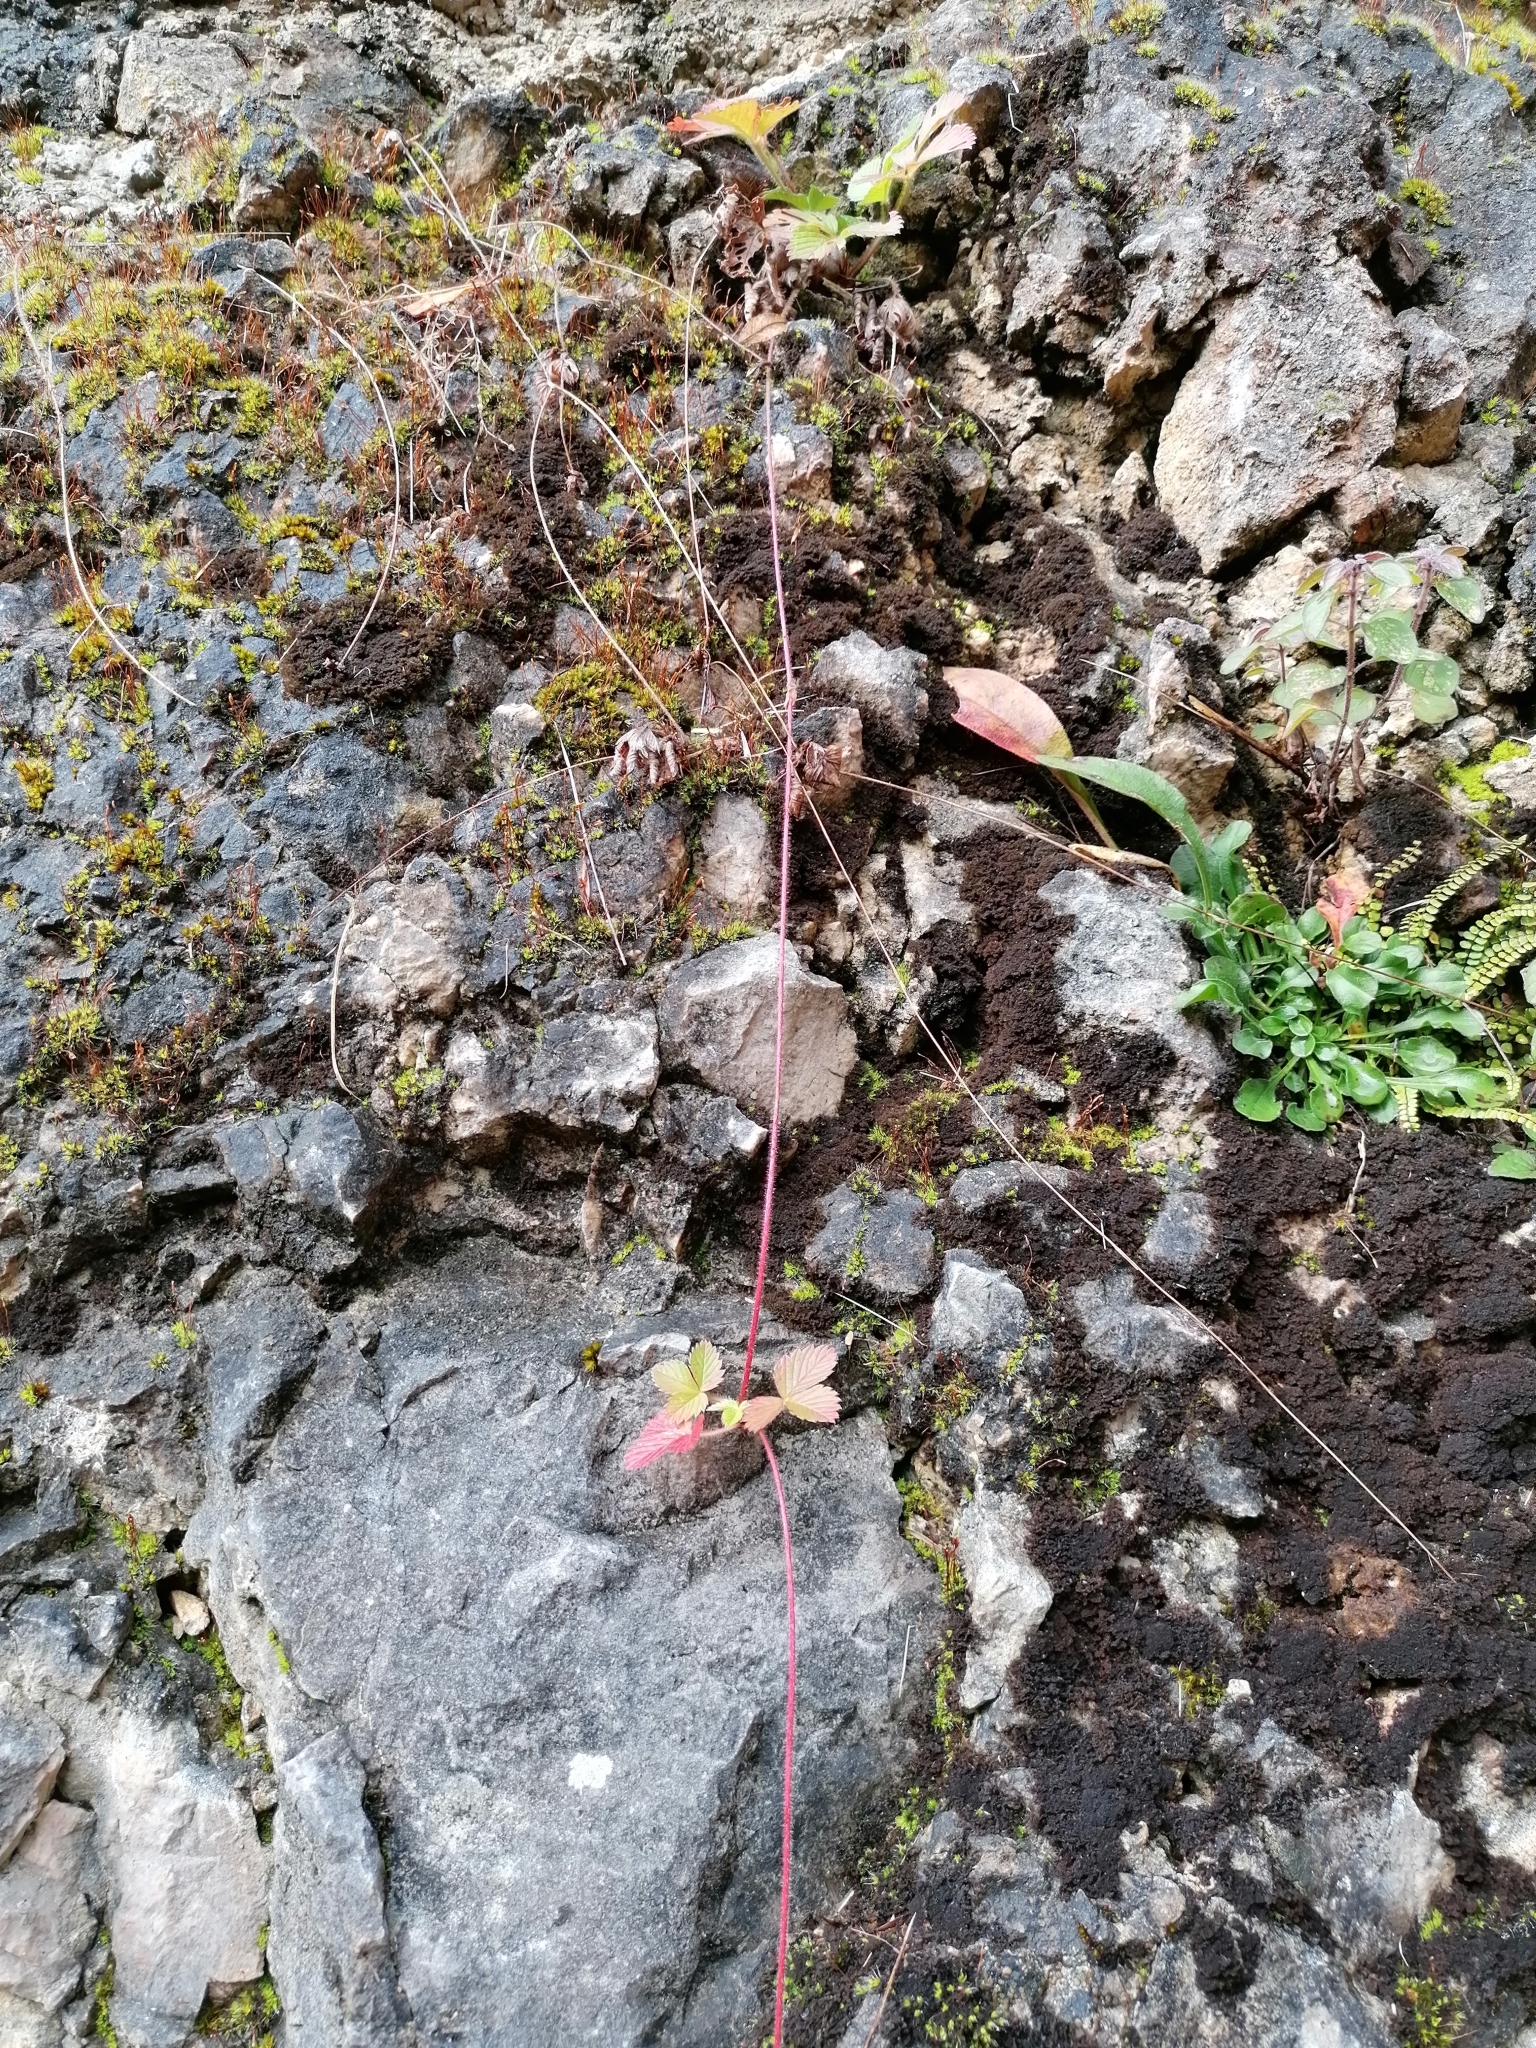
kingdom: Plantae
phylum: Tracheophyta
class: Magnoliopsida
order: Rosales
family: Rosaceae
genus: Fragaria
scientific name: Fragaria vesca
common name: Wild strawberry
